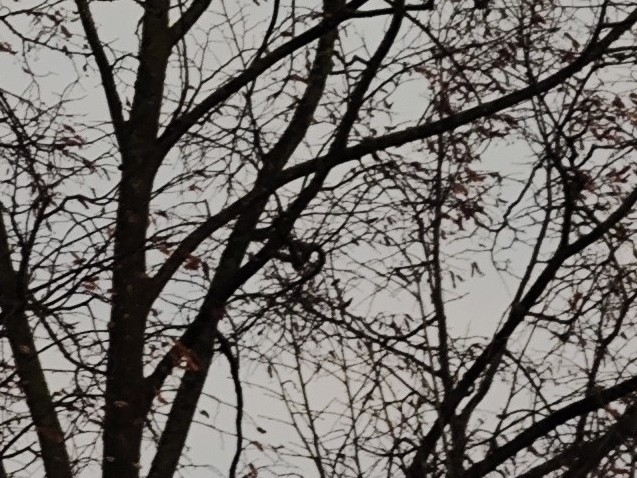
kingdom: Animalia
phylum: Chordata
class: Aves
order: Passeriformes
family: Corvidae
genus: Pica
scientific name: Pica pica
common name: Eurasian magpie
